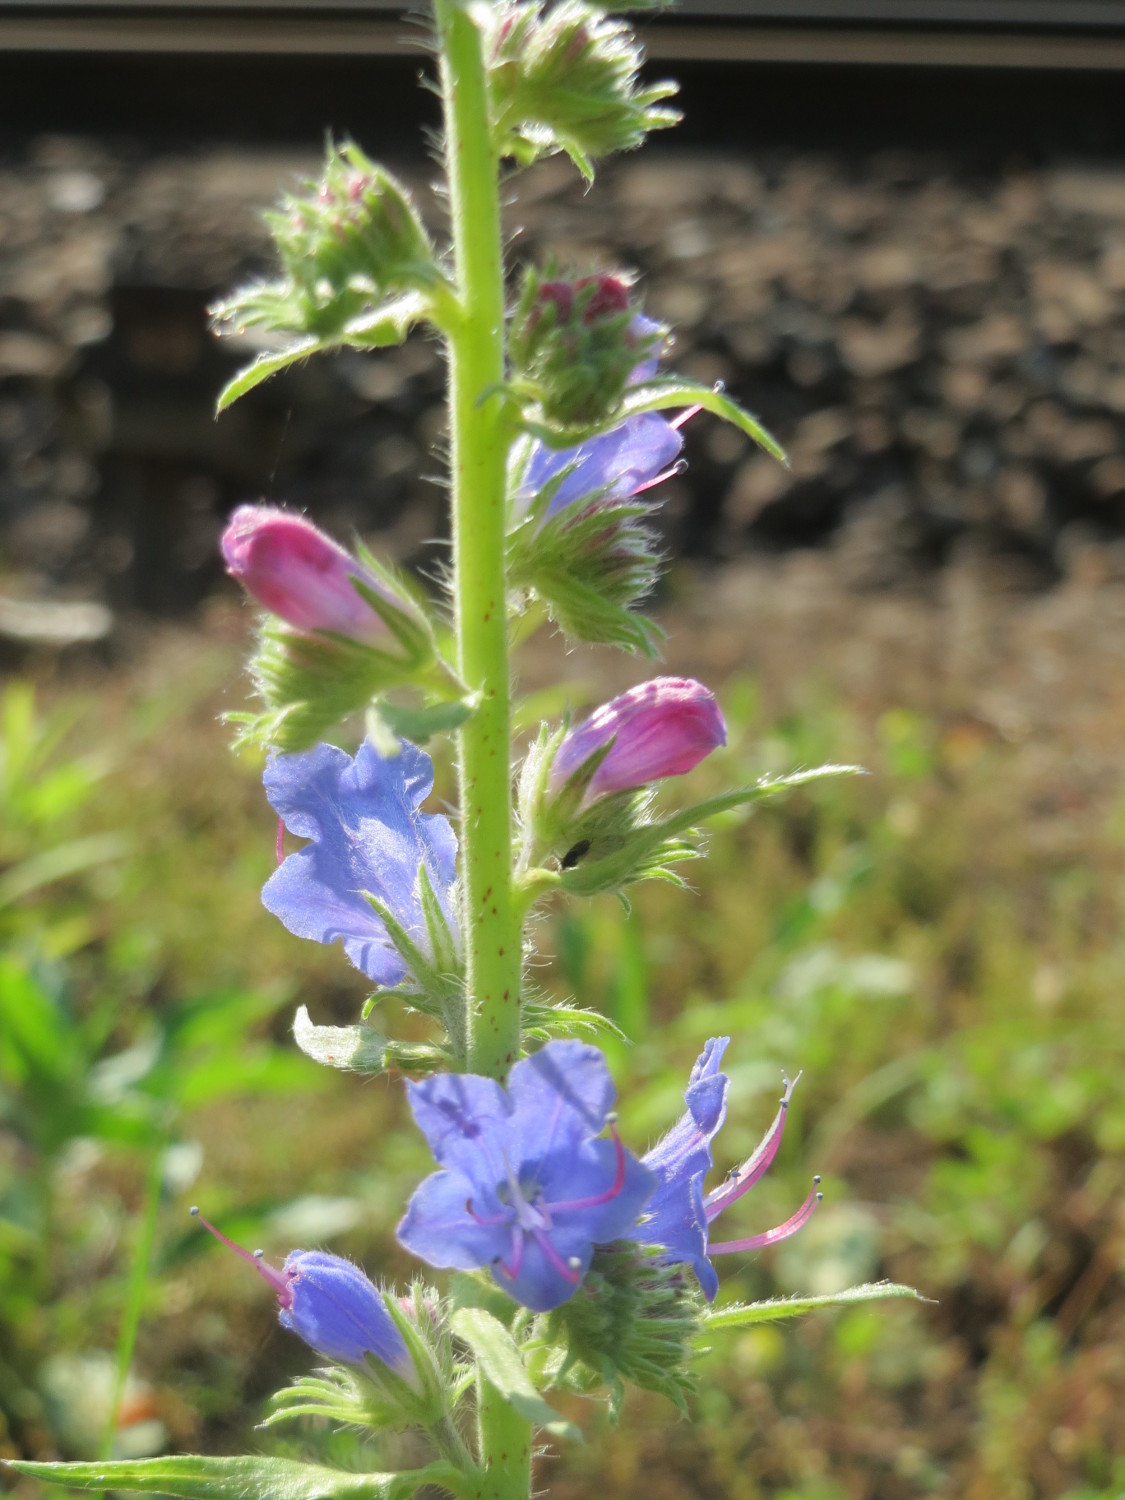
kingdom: Plantae
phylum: Tracheophyta
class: Magnoliopsida
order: Boraginales
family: Boraginaceae
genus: Echium
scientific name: Echium vulgare
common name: Common viper's bugloss
